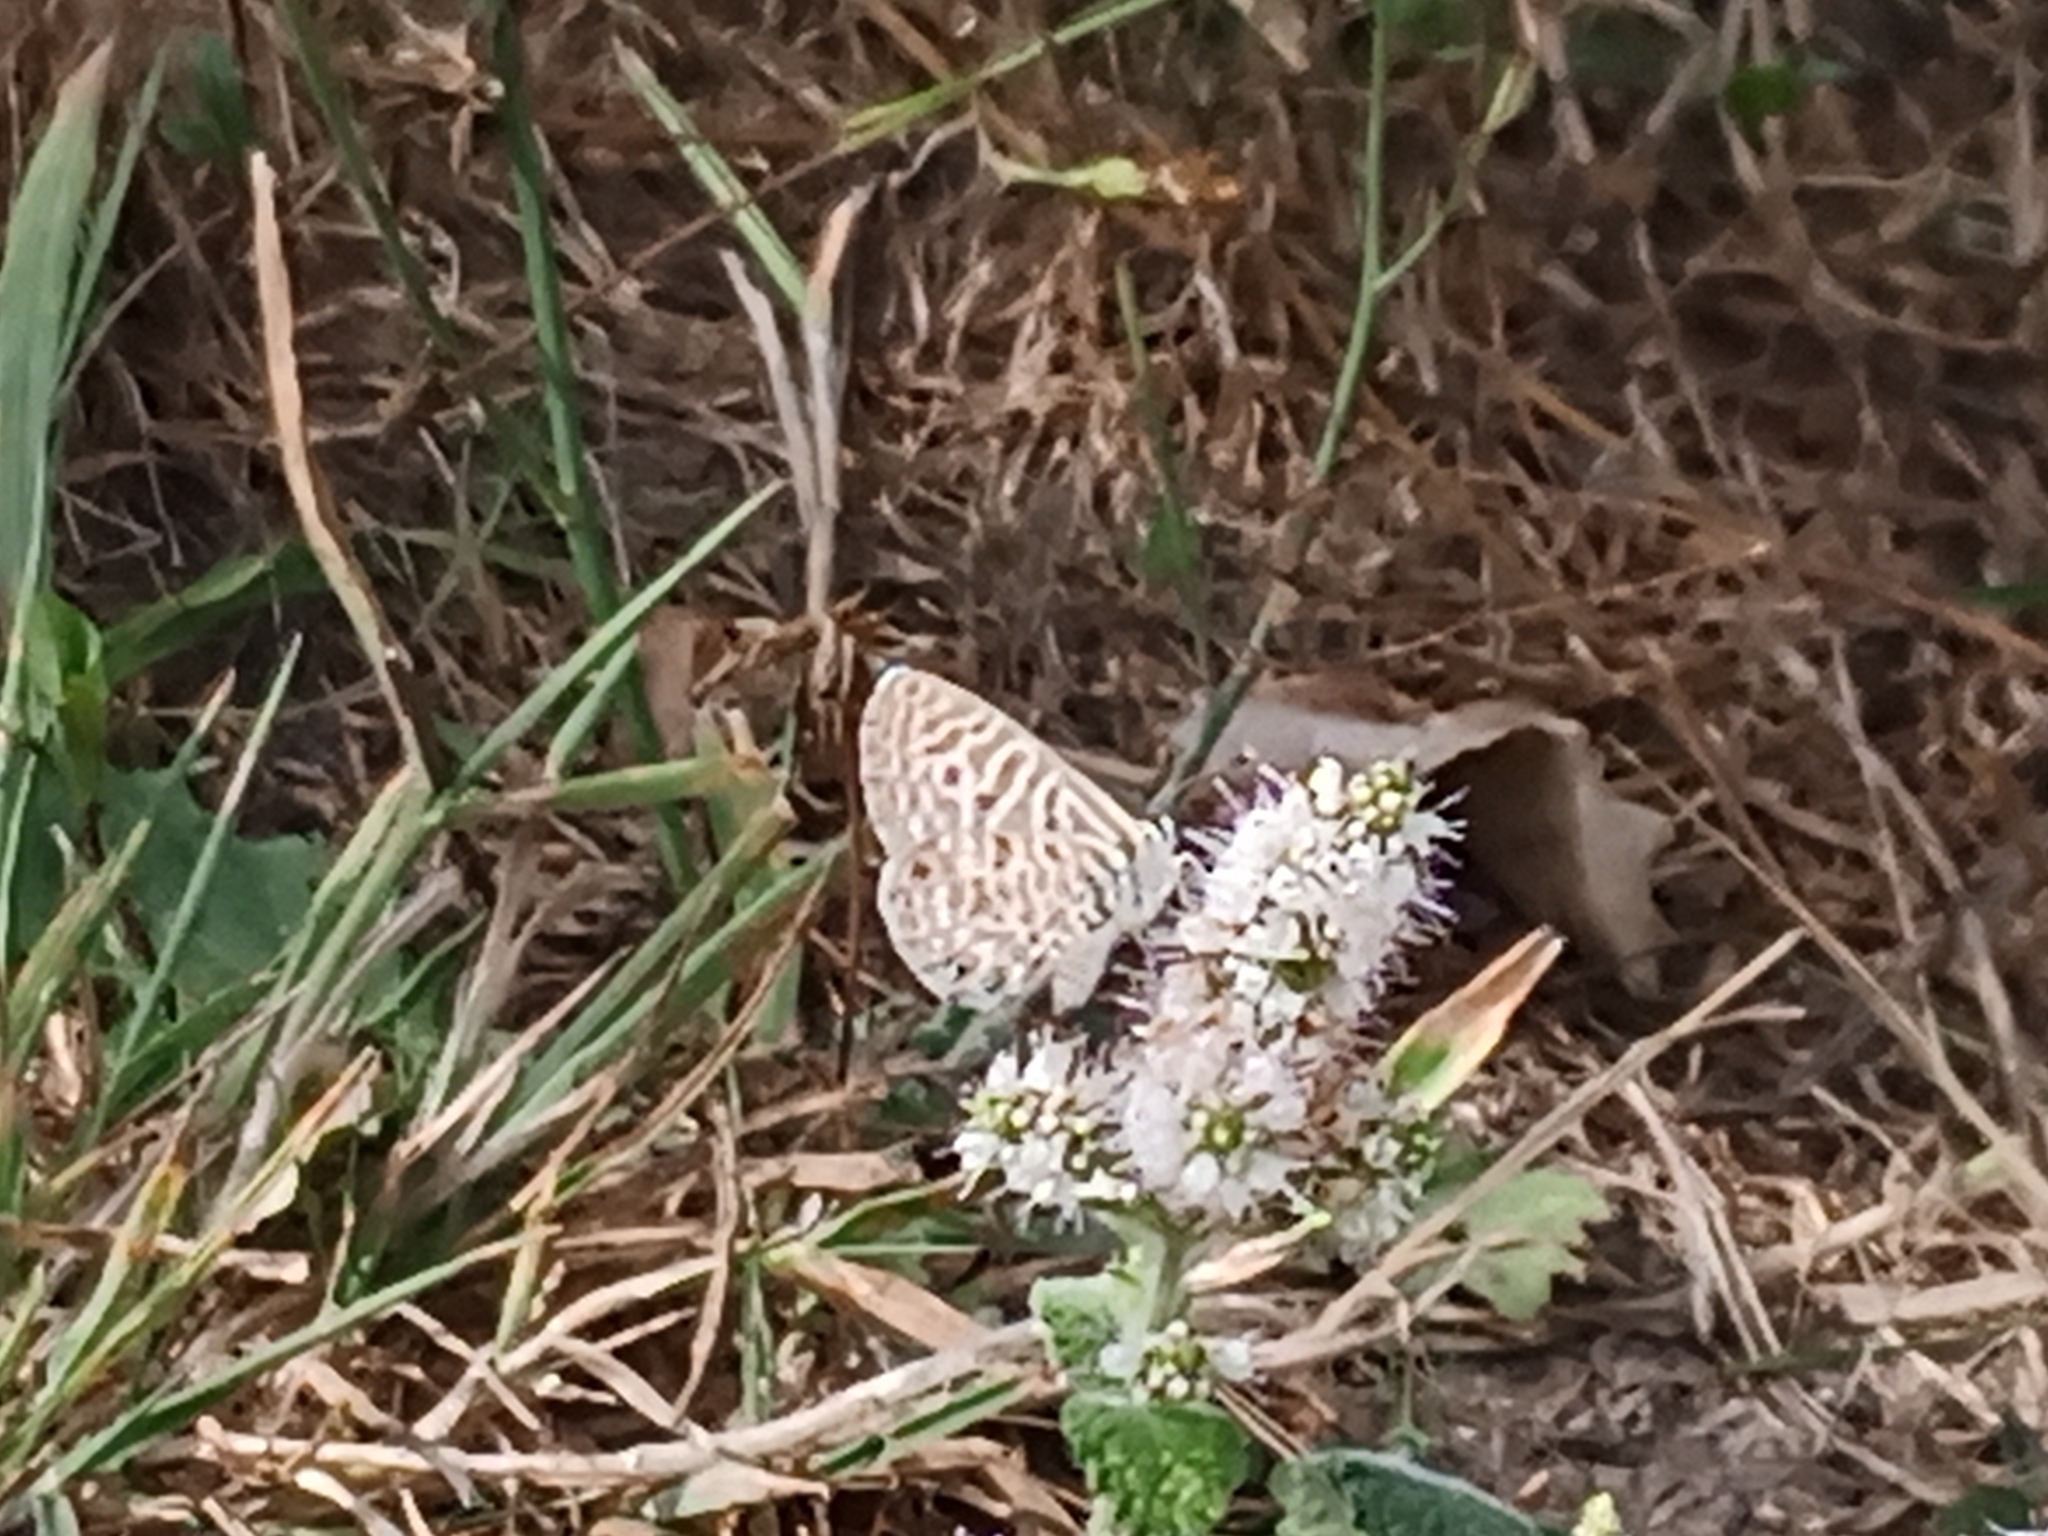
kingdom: Animalia
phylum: Arthropoda
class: Insecta
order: Lepidoptera
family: Lycaenidae
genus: Leptotes
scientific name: Leptotes pirithous
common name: Lang's short-tailed blue
